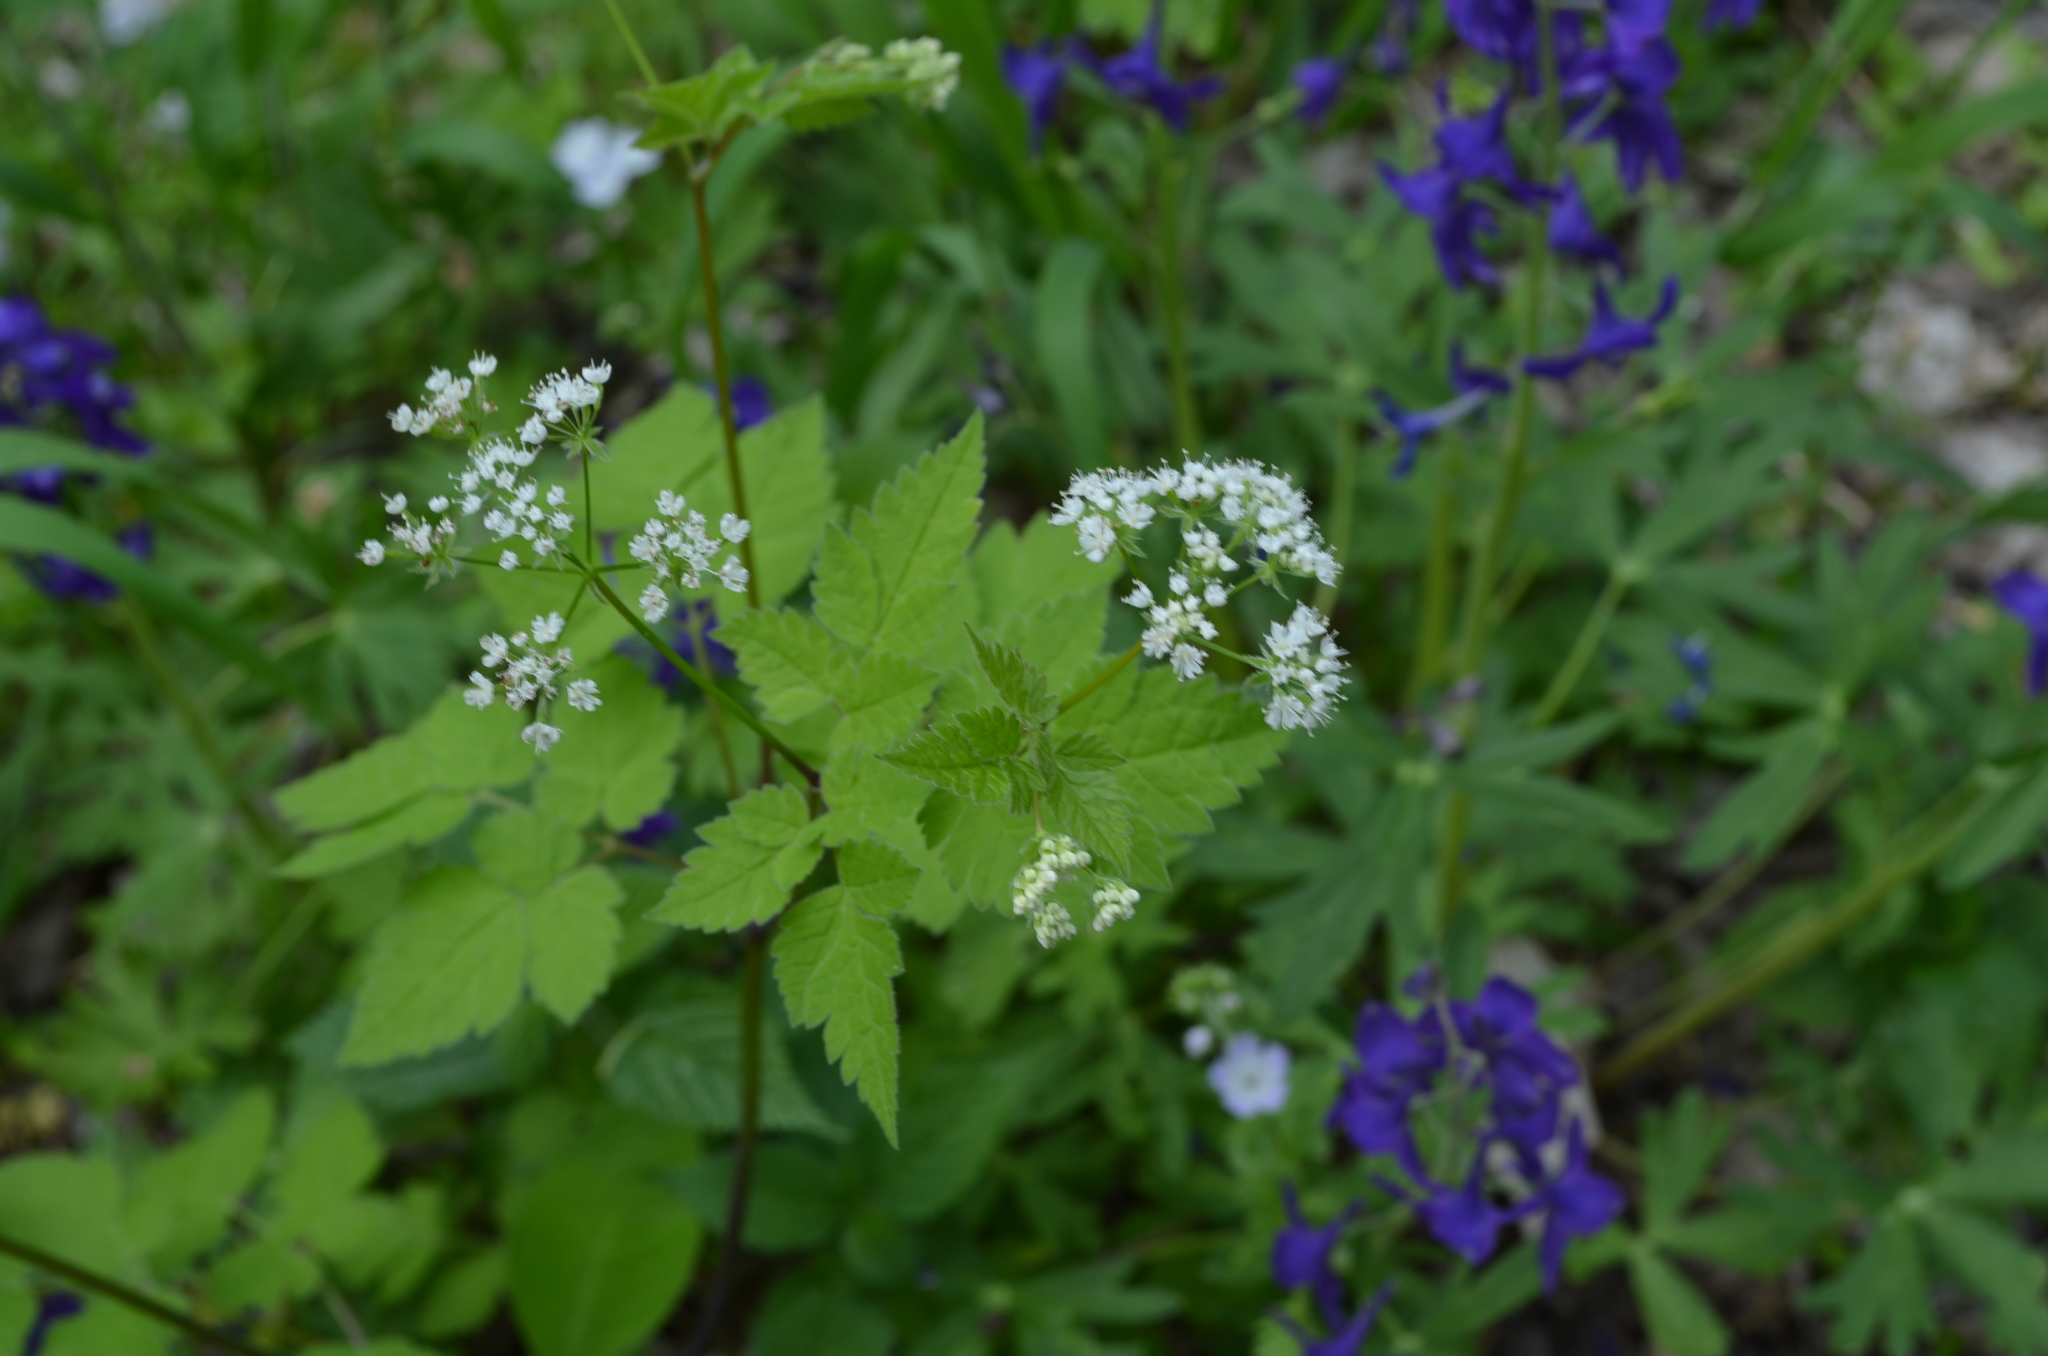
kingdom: Plantae
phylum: Tracheophyta
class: Magnoliopsida
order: Apiales
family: Apiaceae
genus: Osmorhiza
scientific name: Osmorhiza longistylis
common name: Smooth sweet cicely
